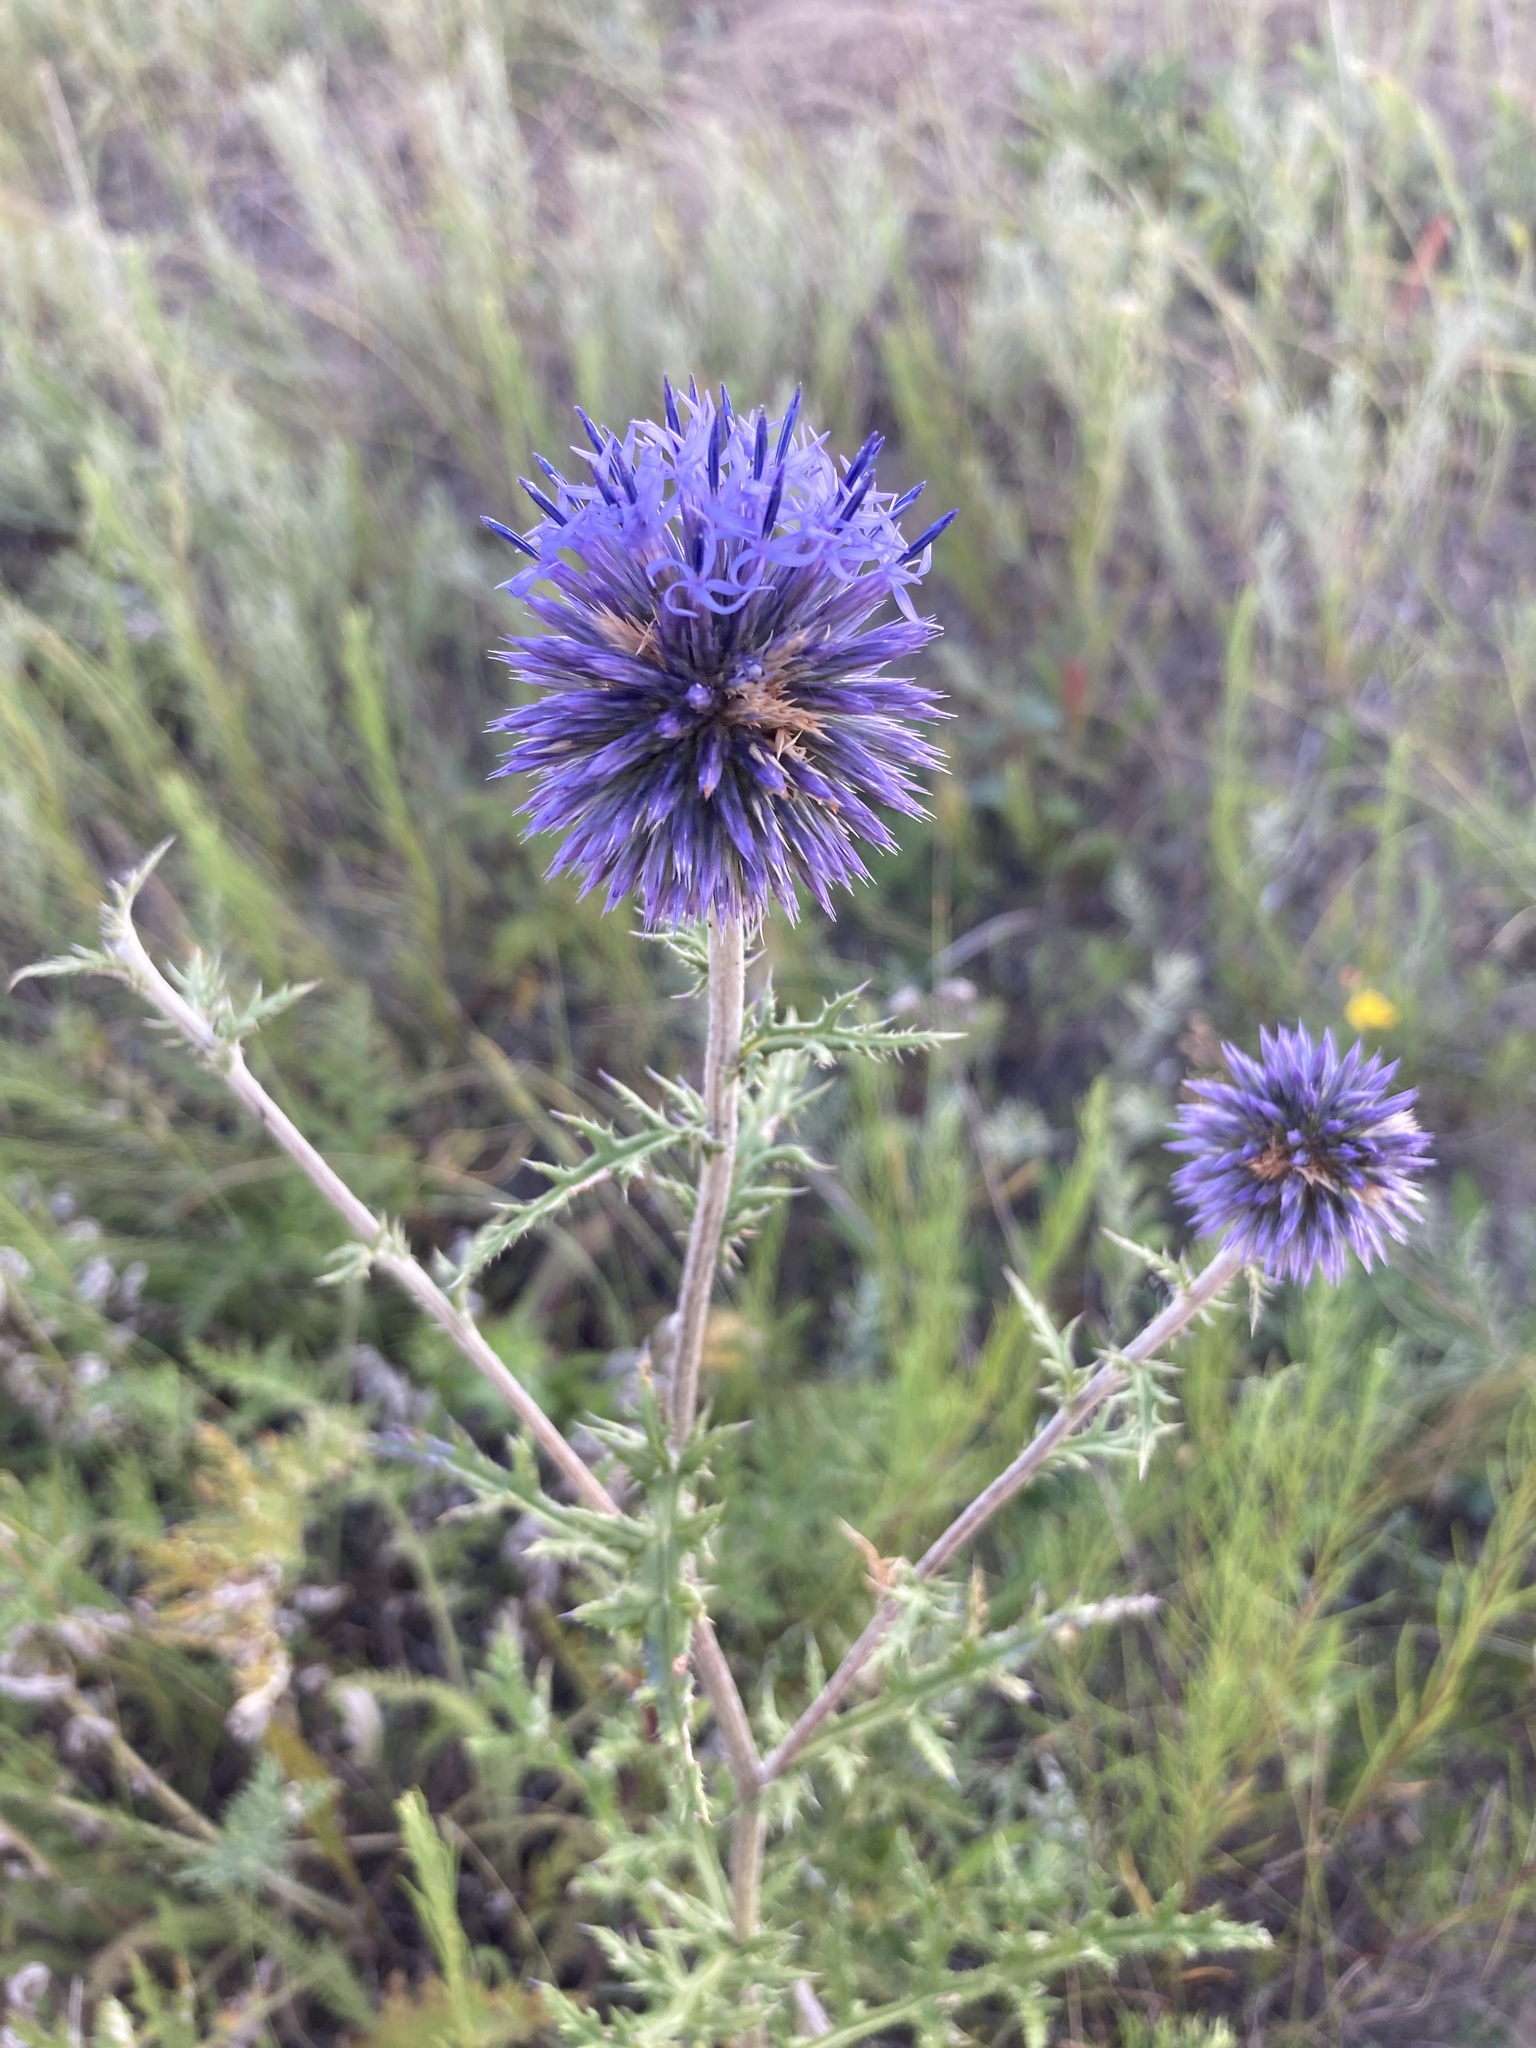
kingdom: Plantae
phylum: Tracheophyta
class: Magnoliopsida
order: Asterales
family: Asteraceae
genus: Echinops
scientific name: Echinops ritro
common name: Globe thistle
